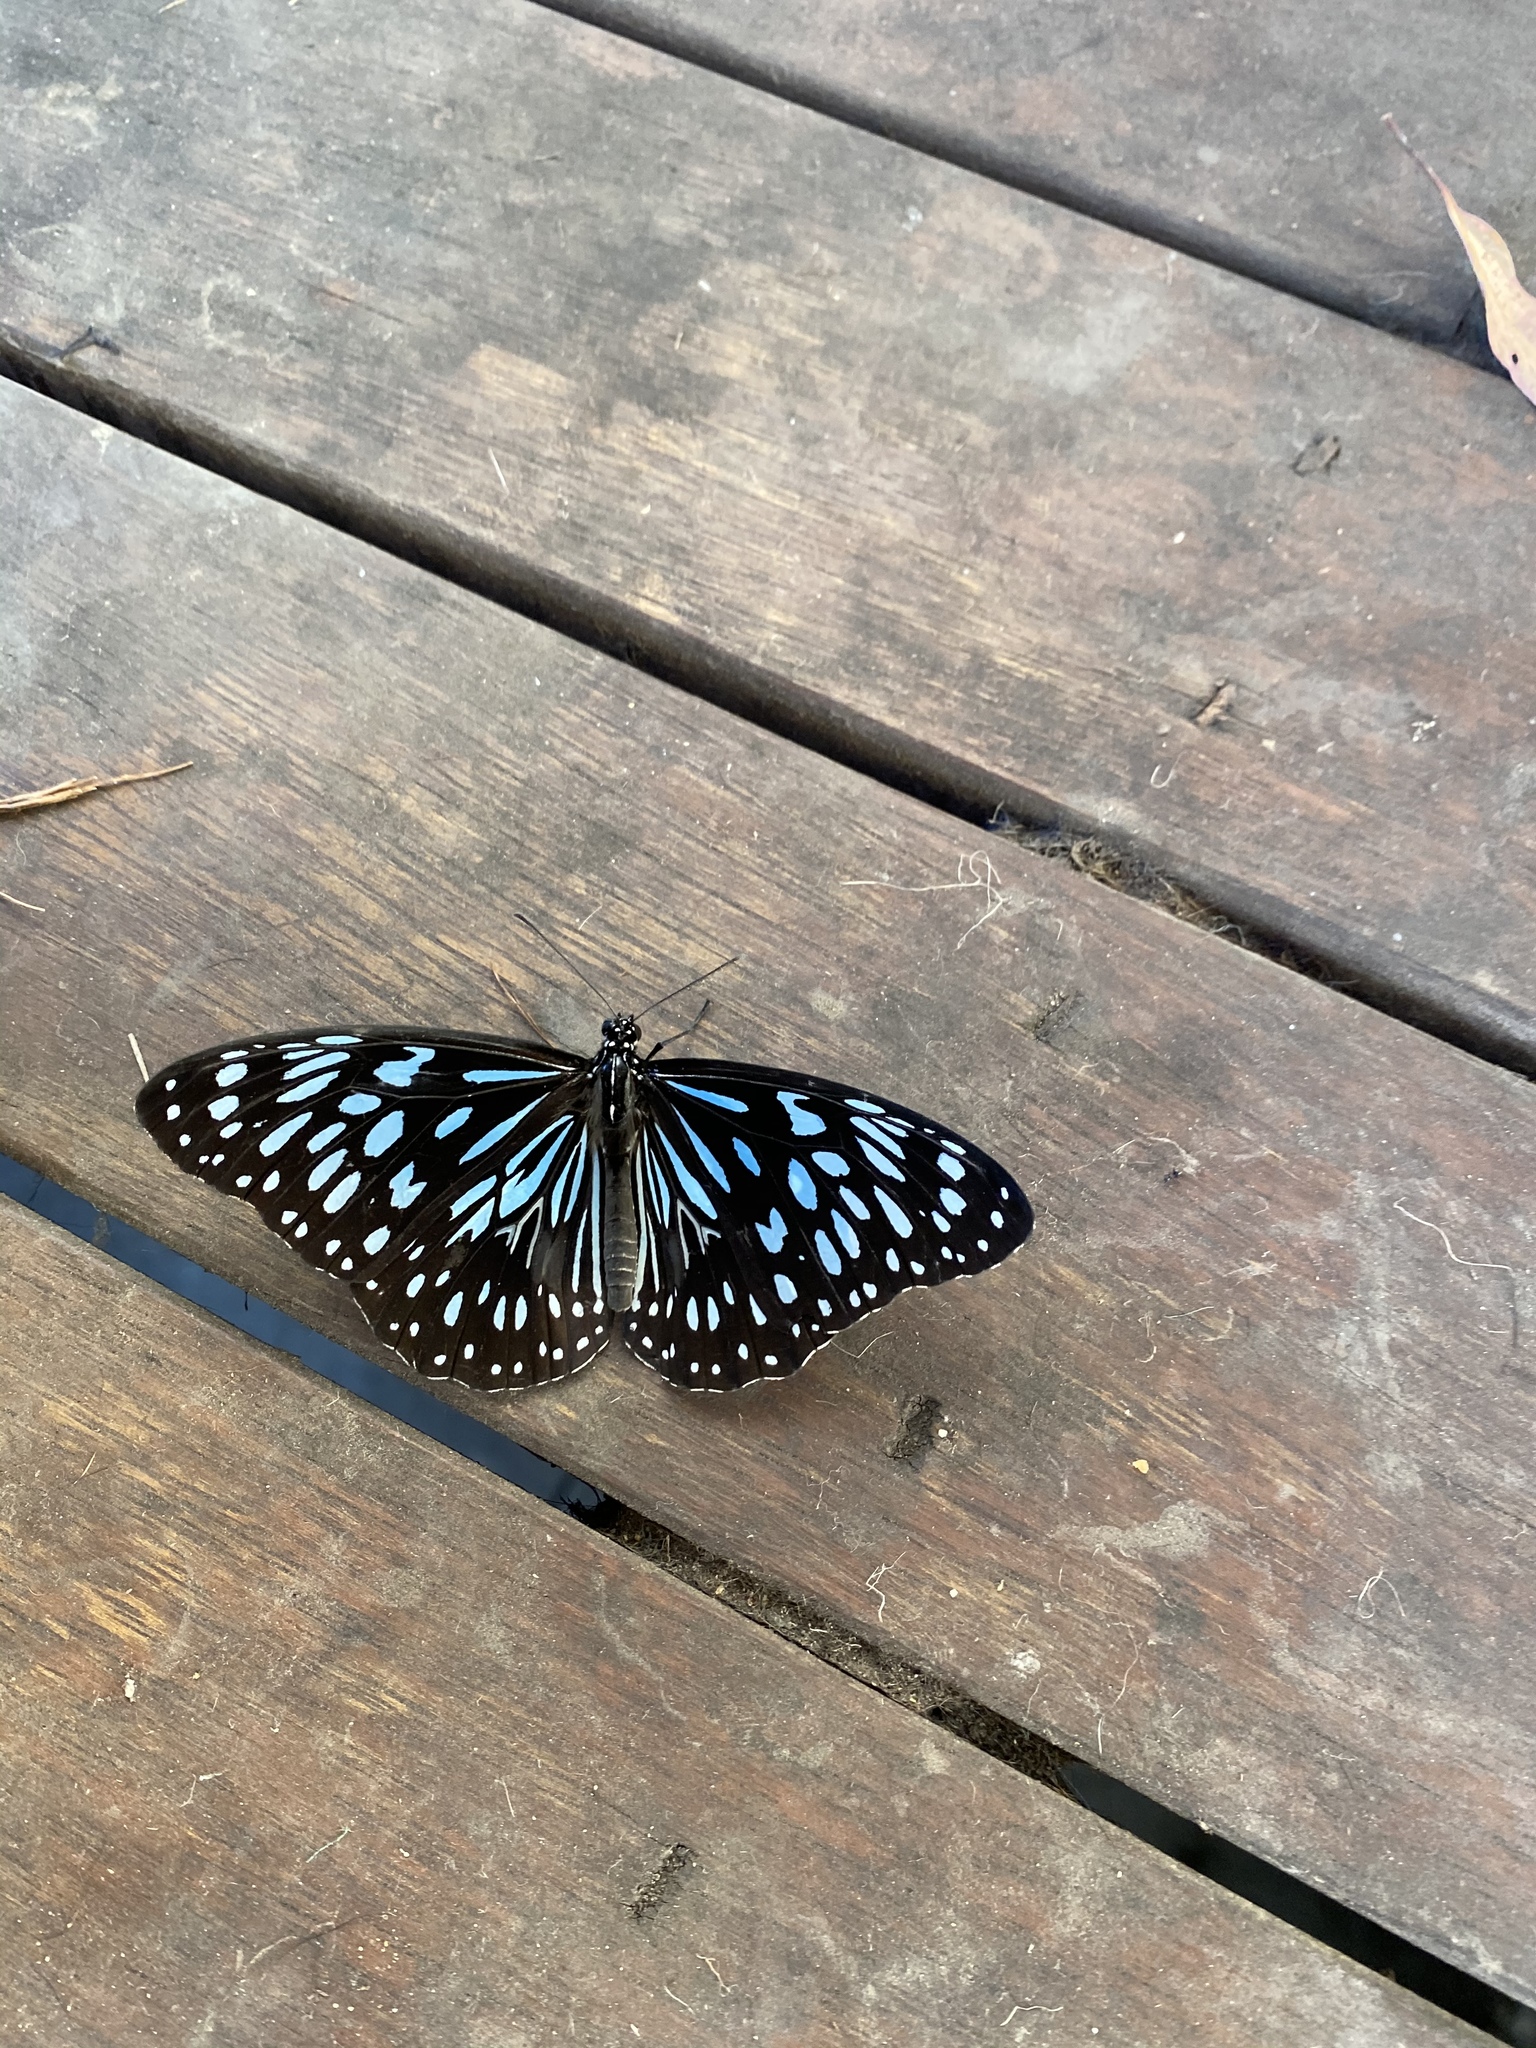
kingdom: Animalia
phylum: Arthropoda
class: Insecta
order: Lepidoptera
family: Nymphalidae
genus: Tirumala
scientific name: Tirumala hamata
